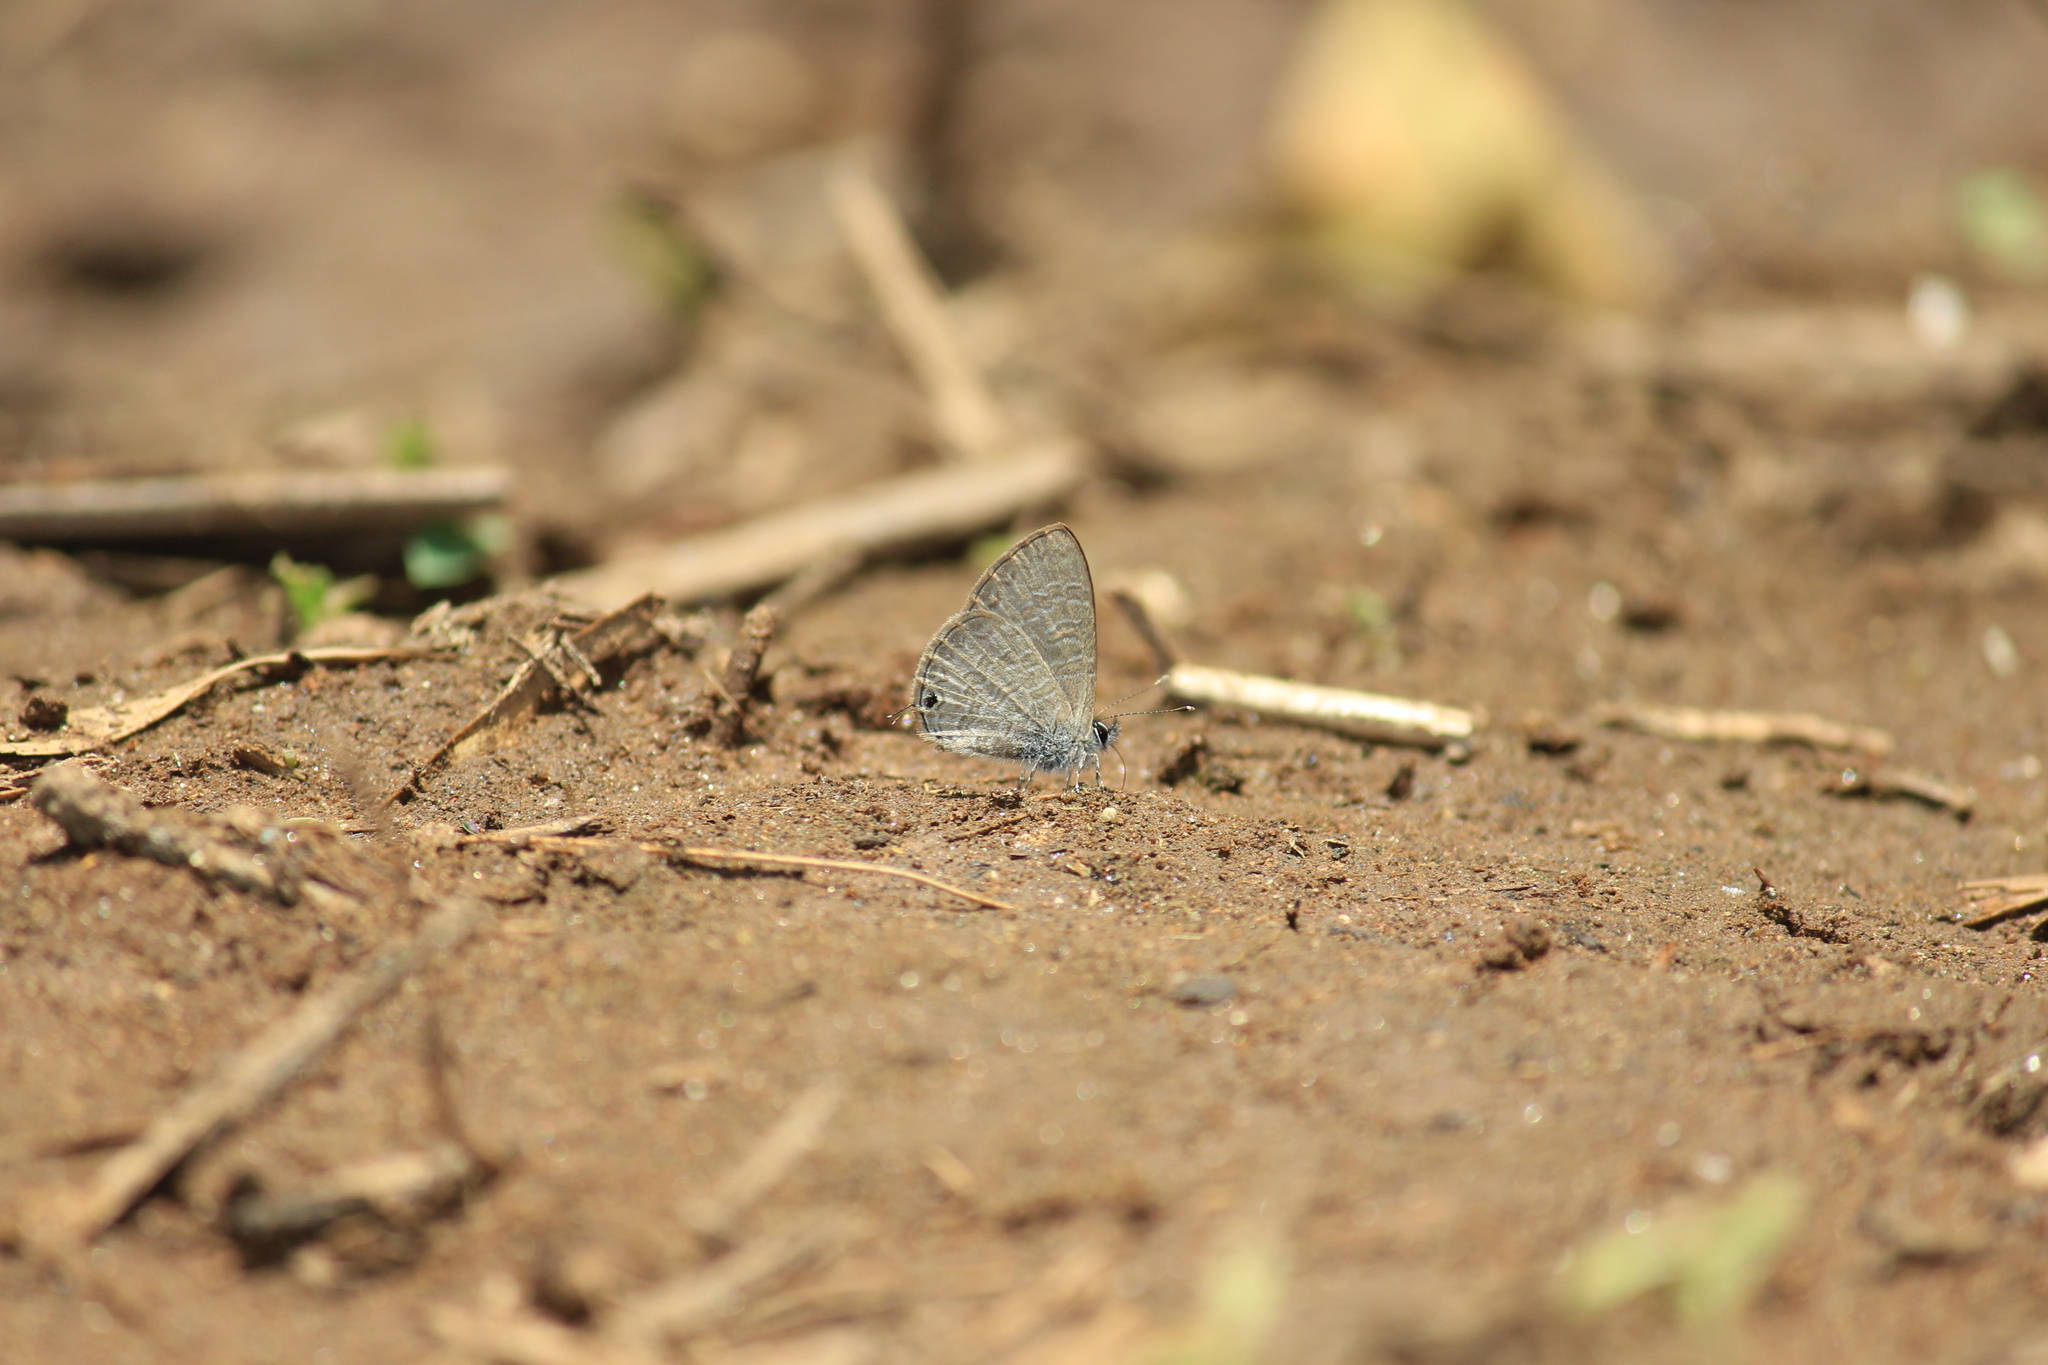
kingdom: Animalia
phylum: Arthropoda
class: Insecta
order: Lepidoptera
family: Lycaenidae
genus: Prosotas
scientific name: Prosotas nora
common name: Common line blue
